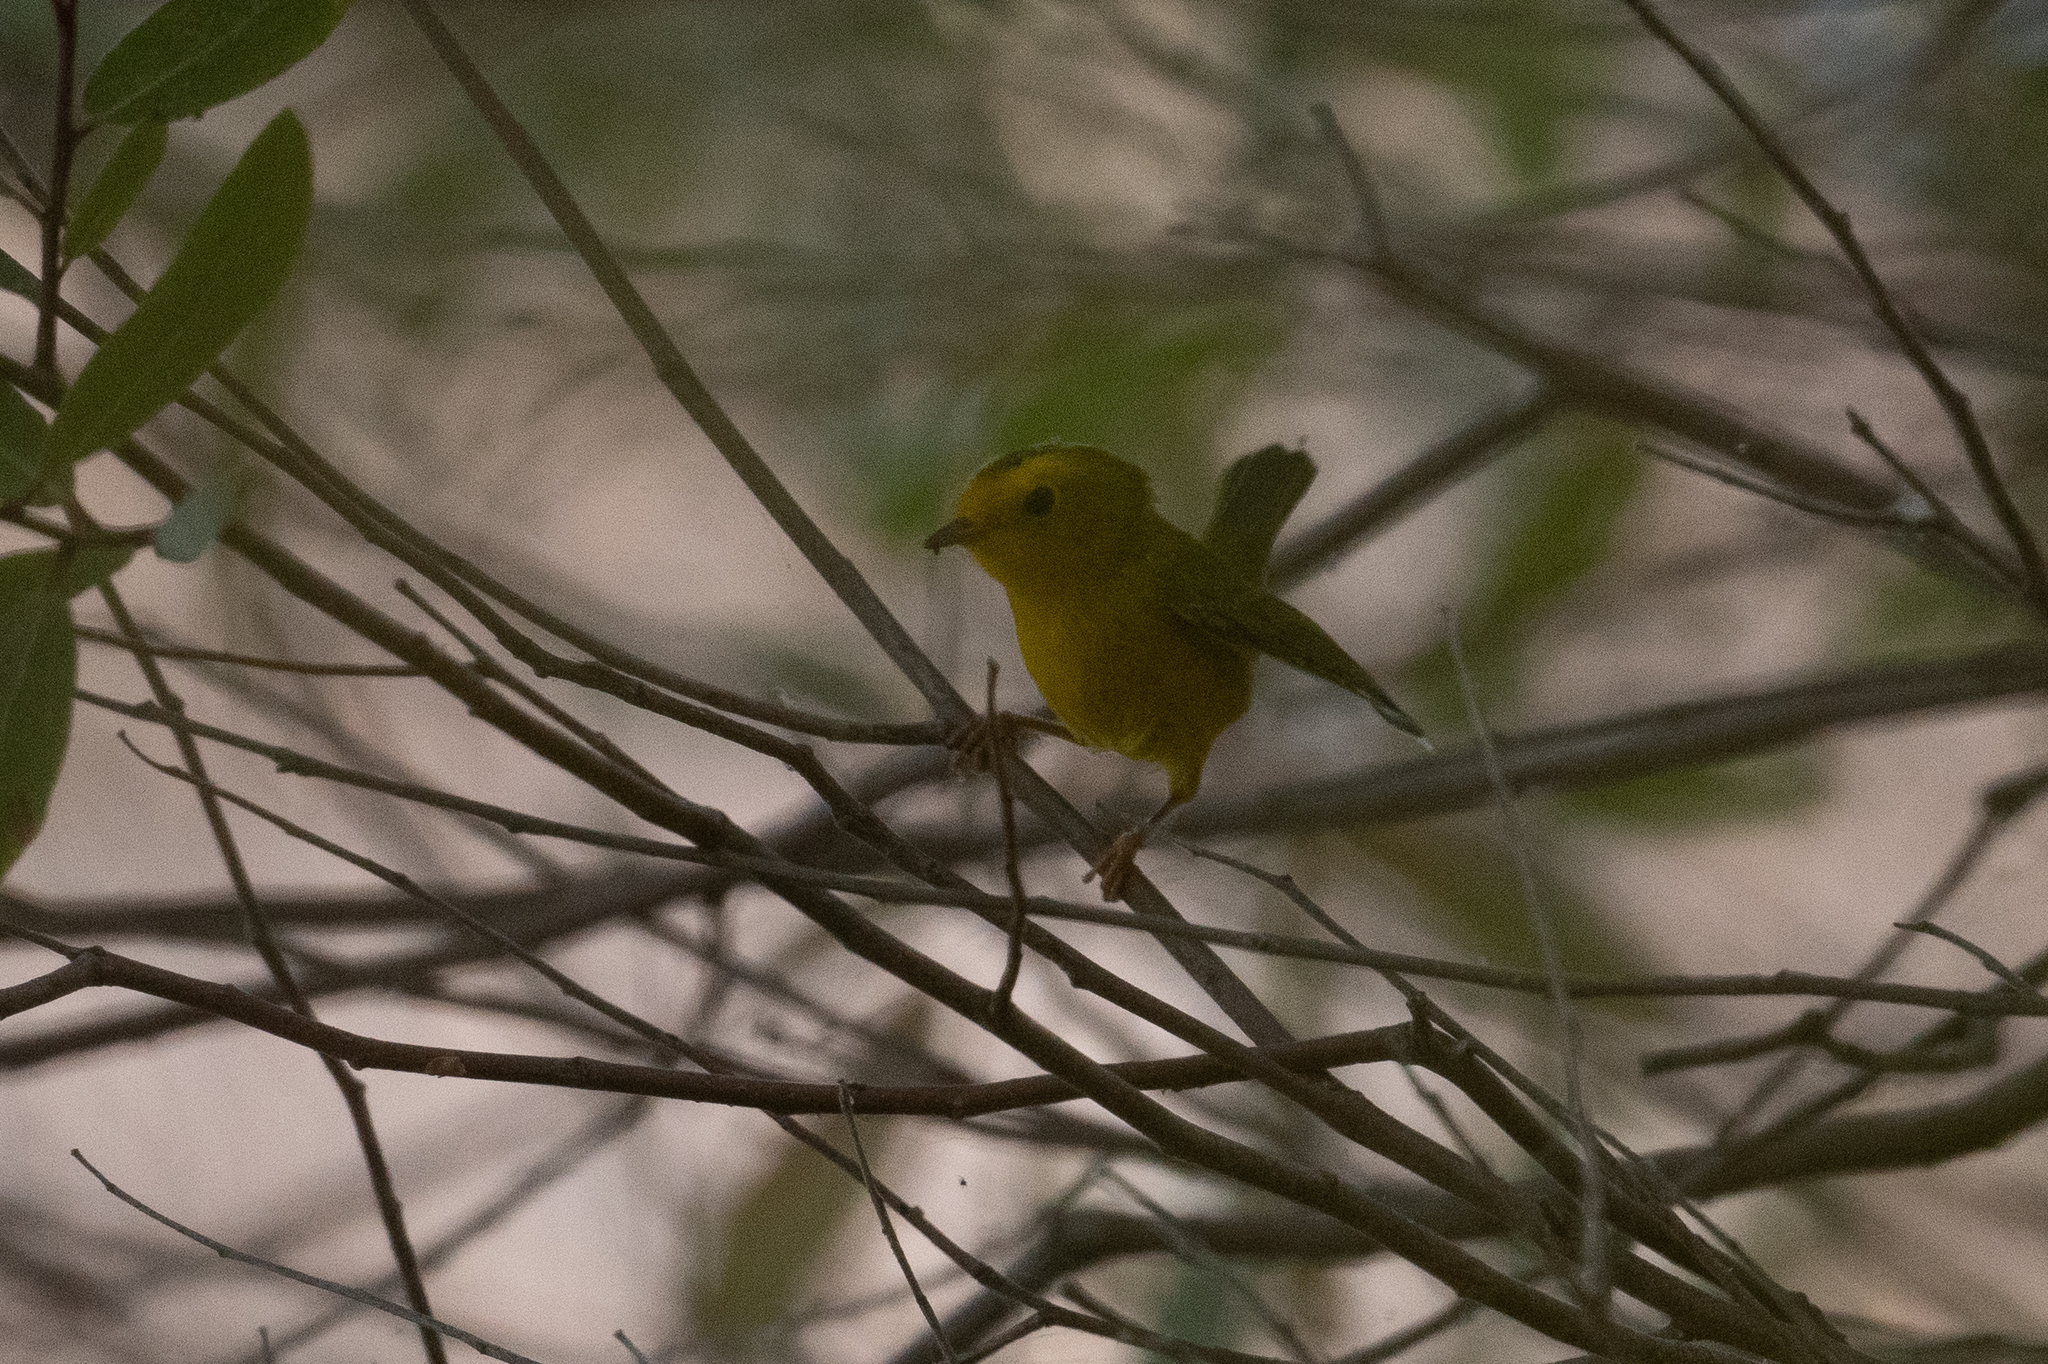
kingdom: Animalia
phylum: Chordata
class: Aves
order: Passeriformes
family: Parulidae
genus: Cardellina
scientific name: Cardellina pusilla
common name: Wilson's warbler
